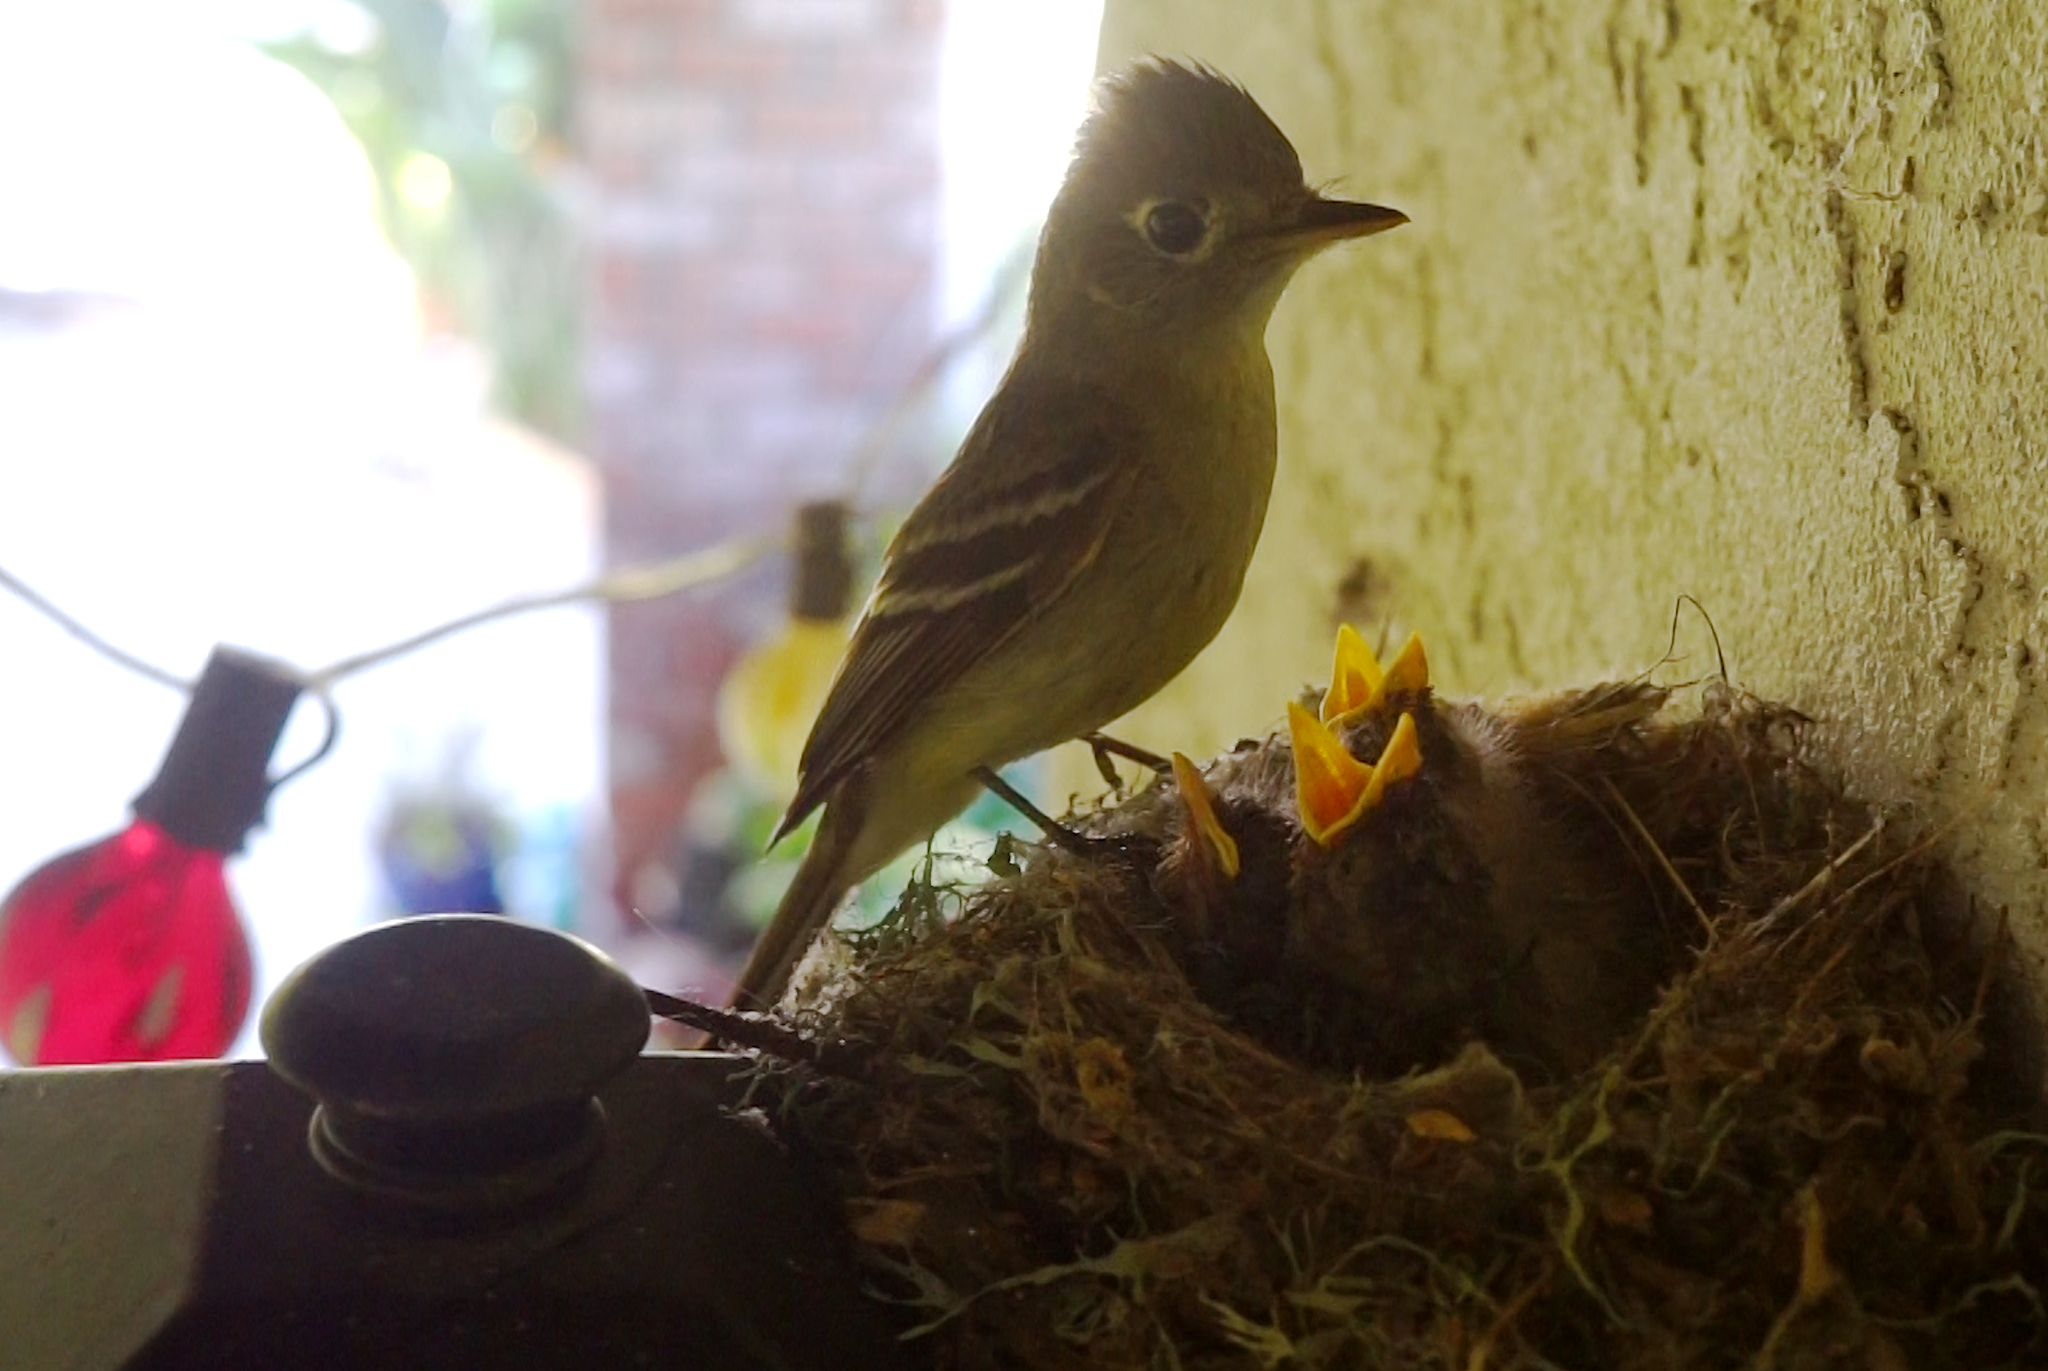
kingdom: Animalia
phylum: Chordata
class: Aves
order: Passeriformes
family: Tyrannidae
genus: Empidonax
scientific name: Empidonax difficilis
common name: Pacific-slope flycatcher
